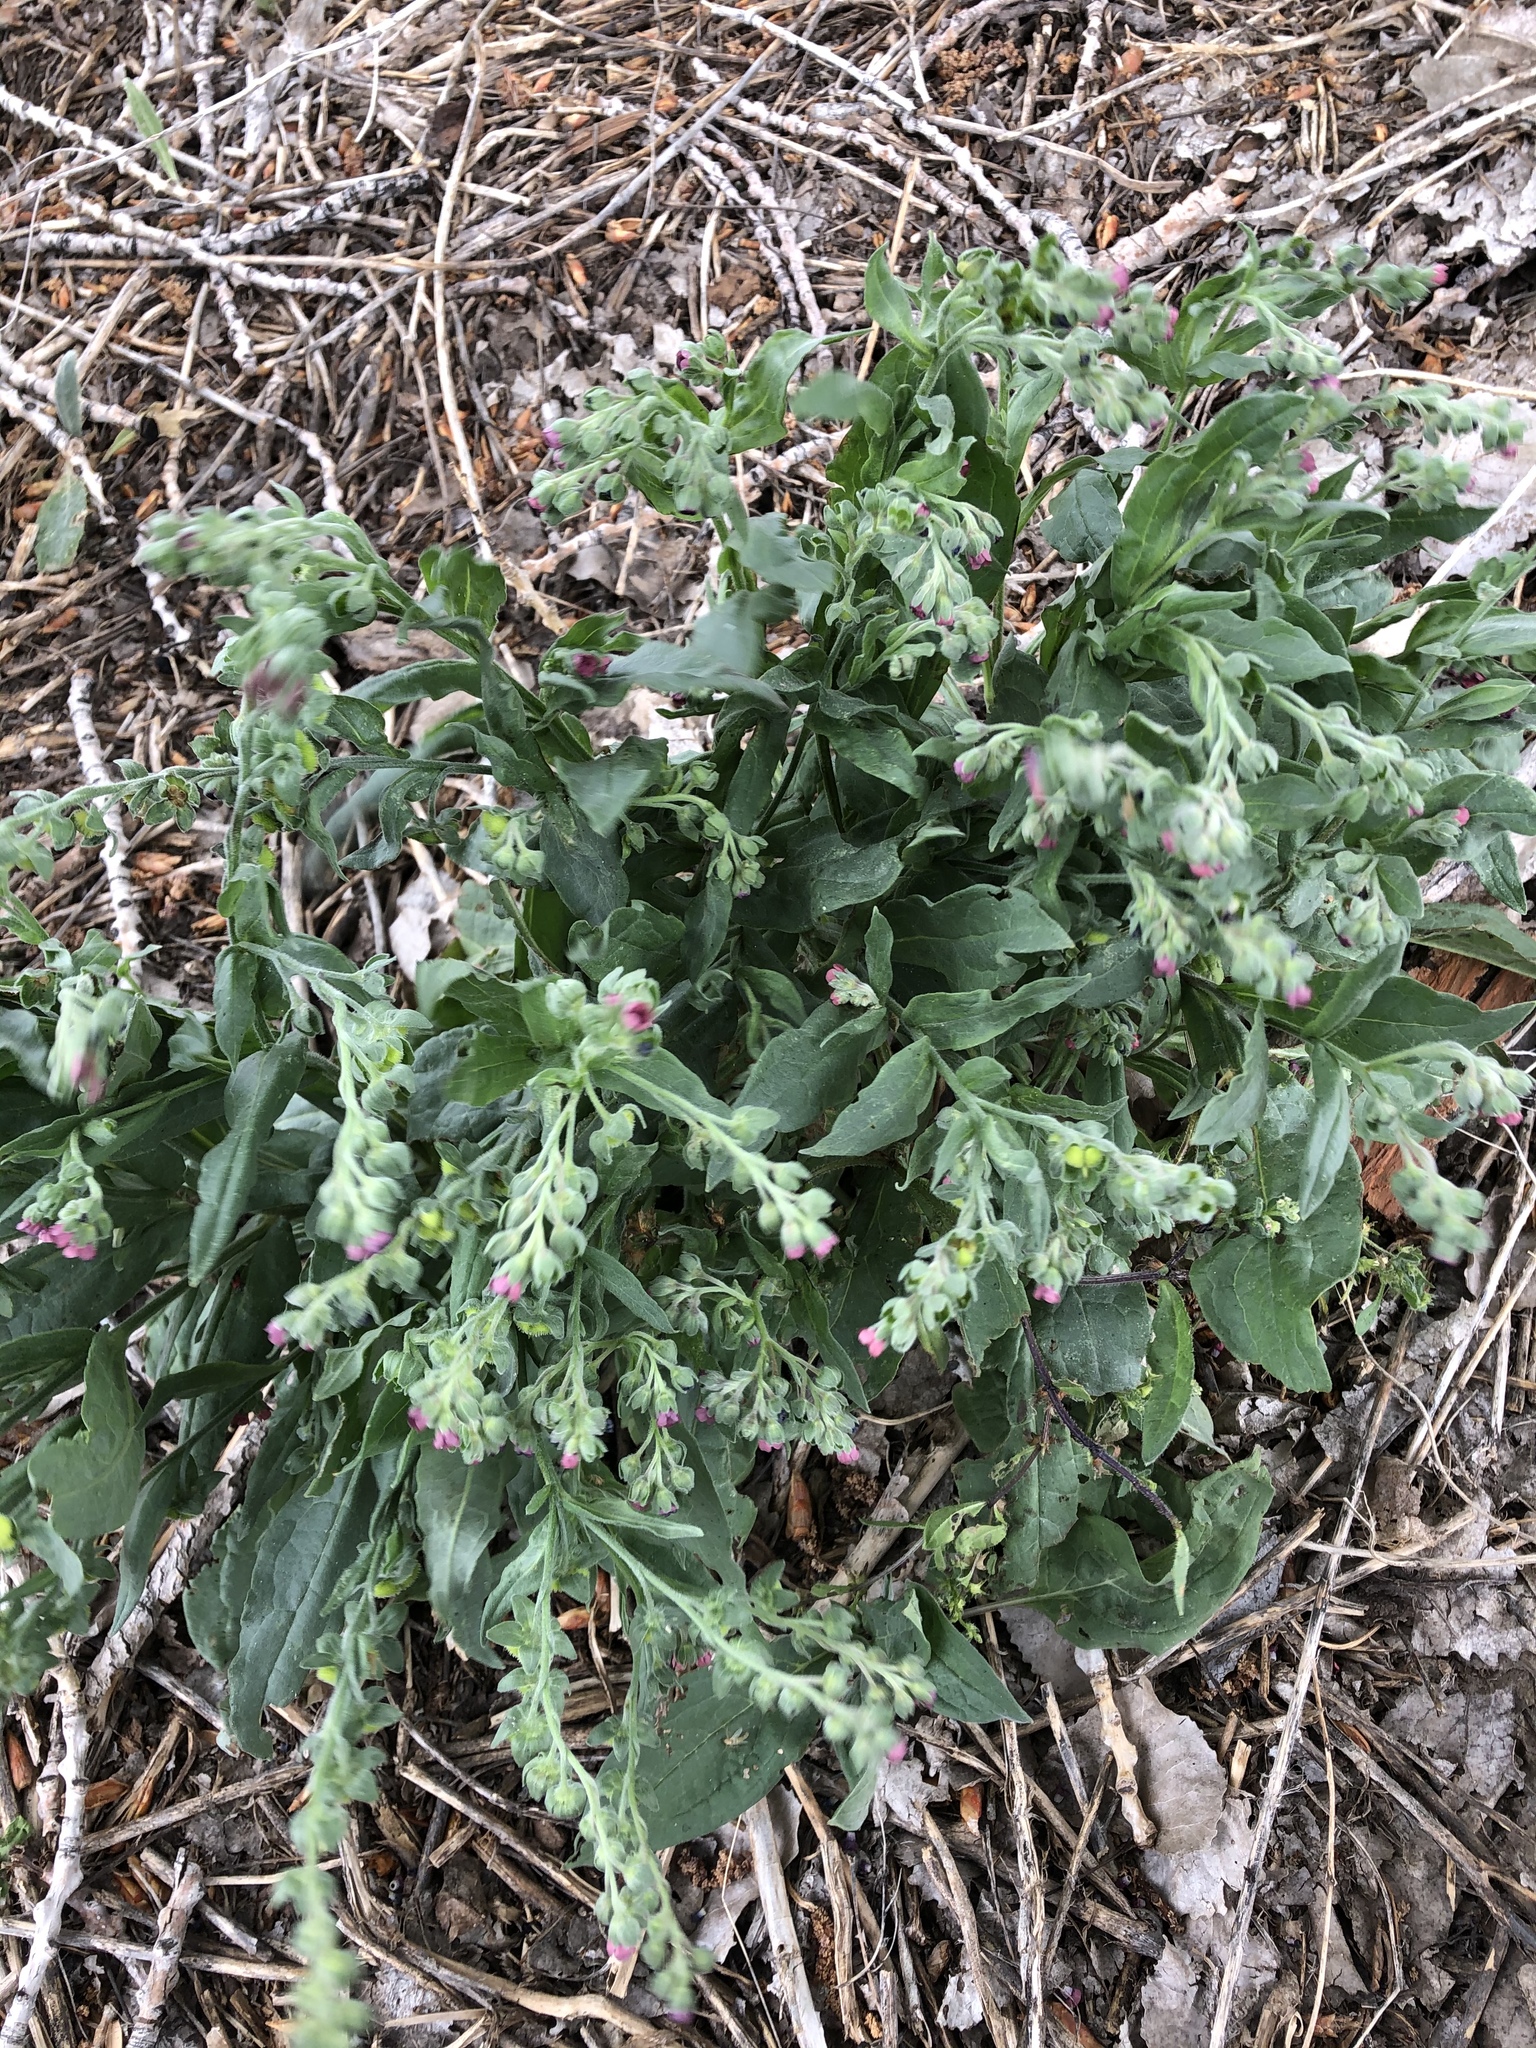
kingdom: Plantae
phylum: Tracheophyta
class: Magnoliopsida
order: Boraginales
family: Boraginaceae
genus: Cynoglossum
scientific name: Cynoglossum officinale
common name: Hound's-tongue
